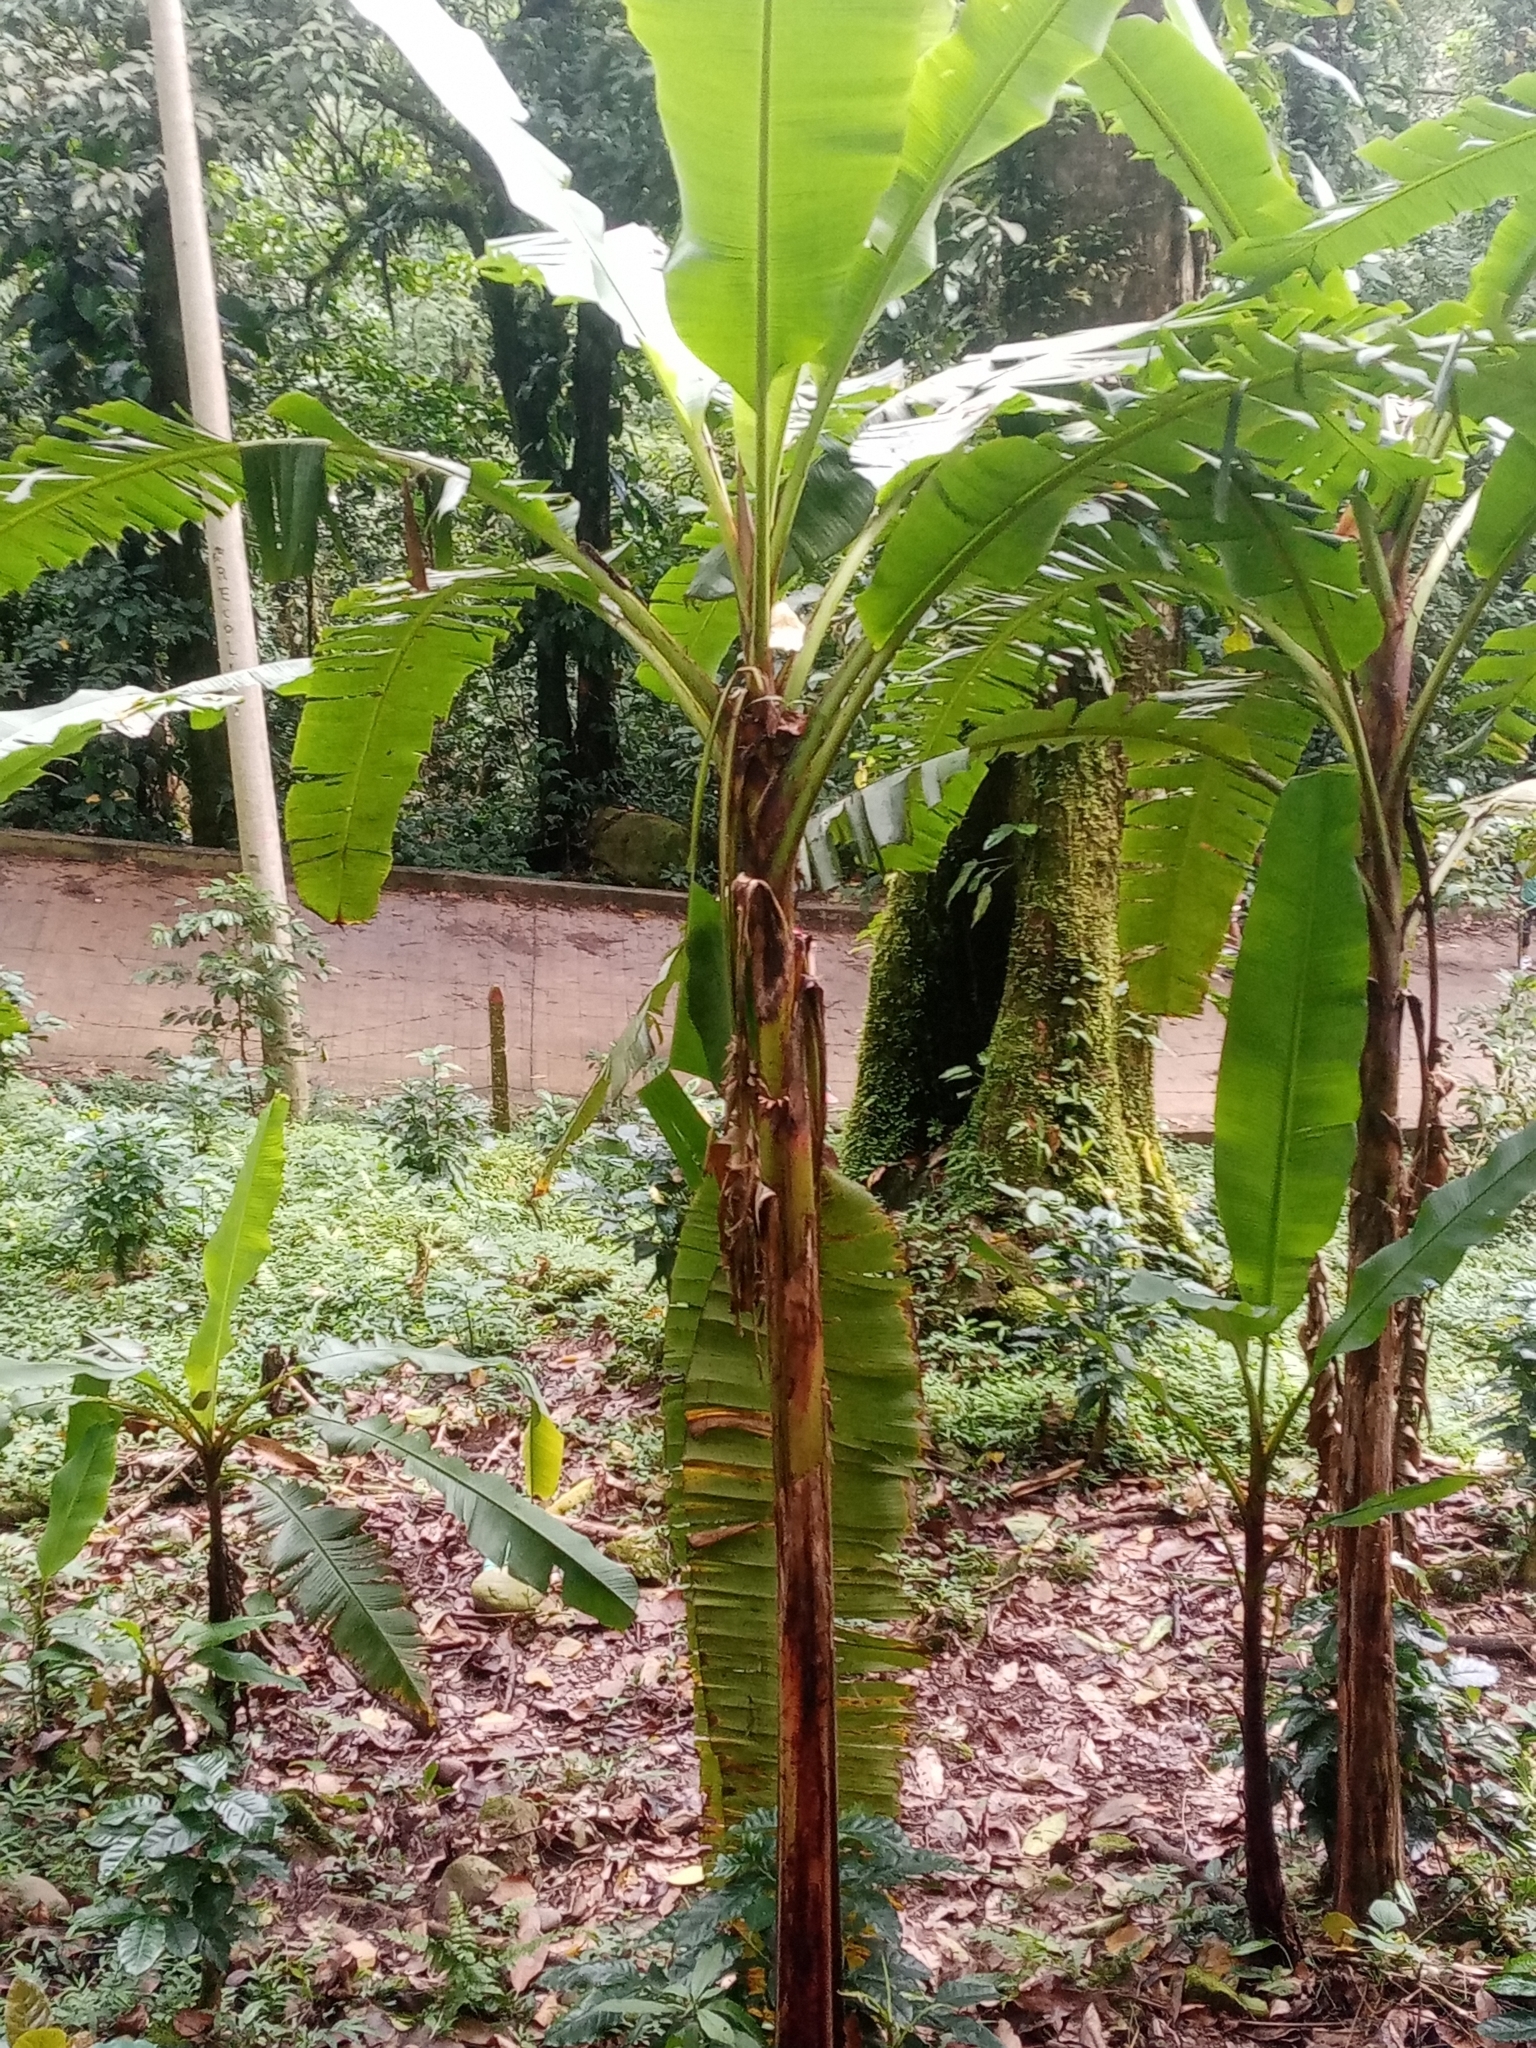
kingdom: Plantae
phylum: Tracheophyta
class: Liliopsida
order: Zingiberales
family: Musaceae
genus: Musa
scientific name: Musa acuminata
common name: Edible banana
